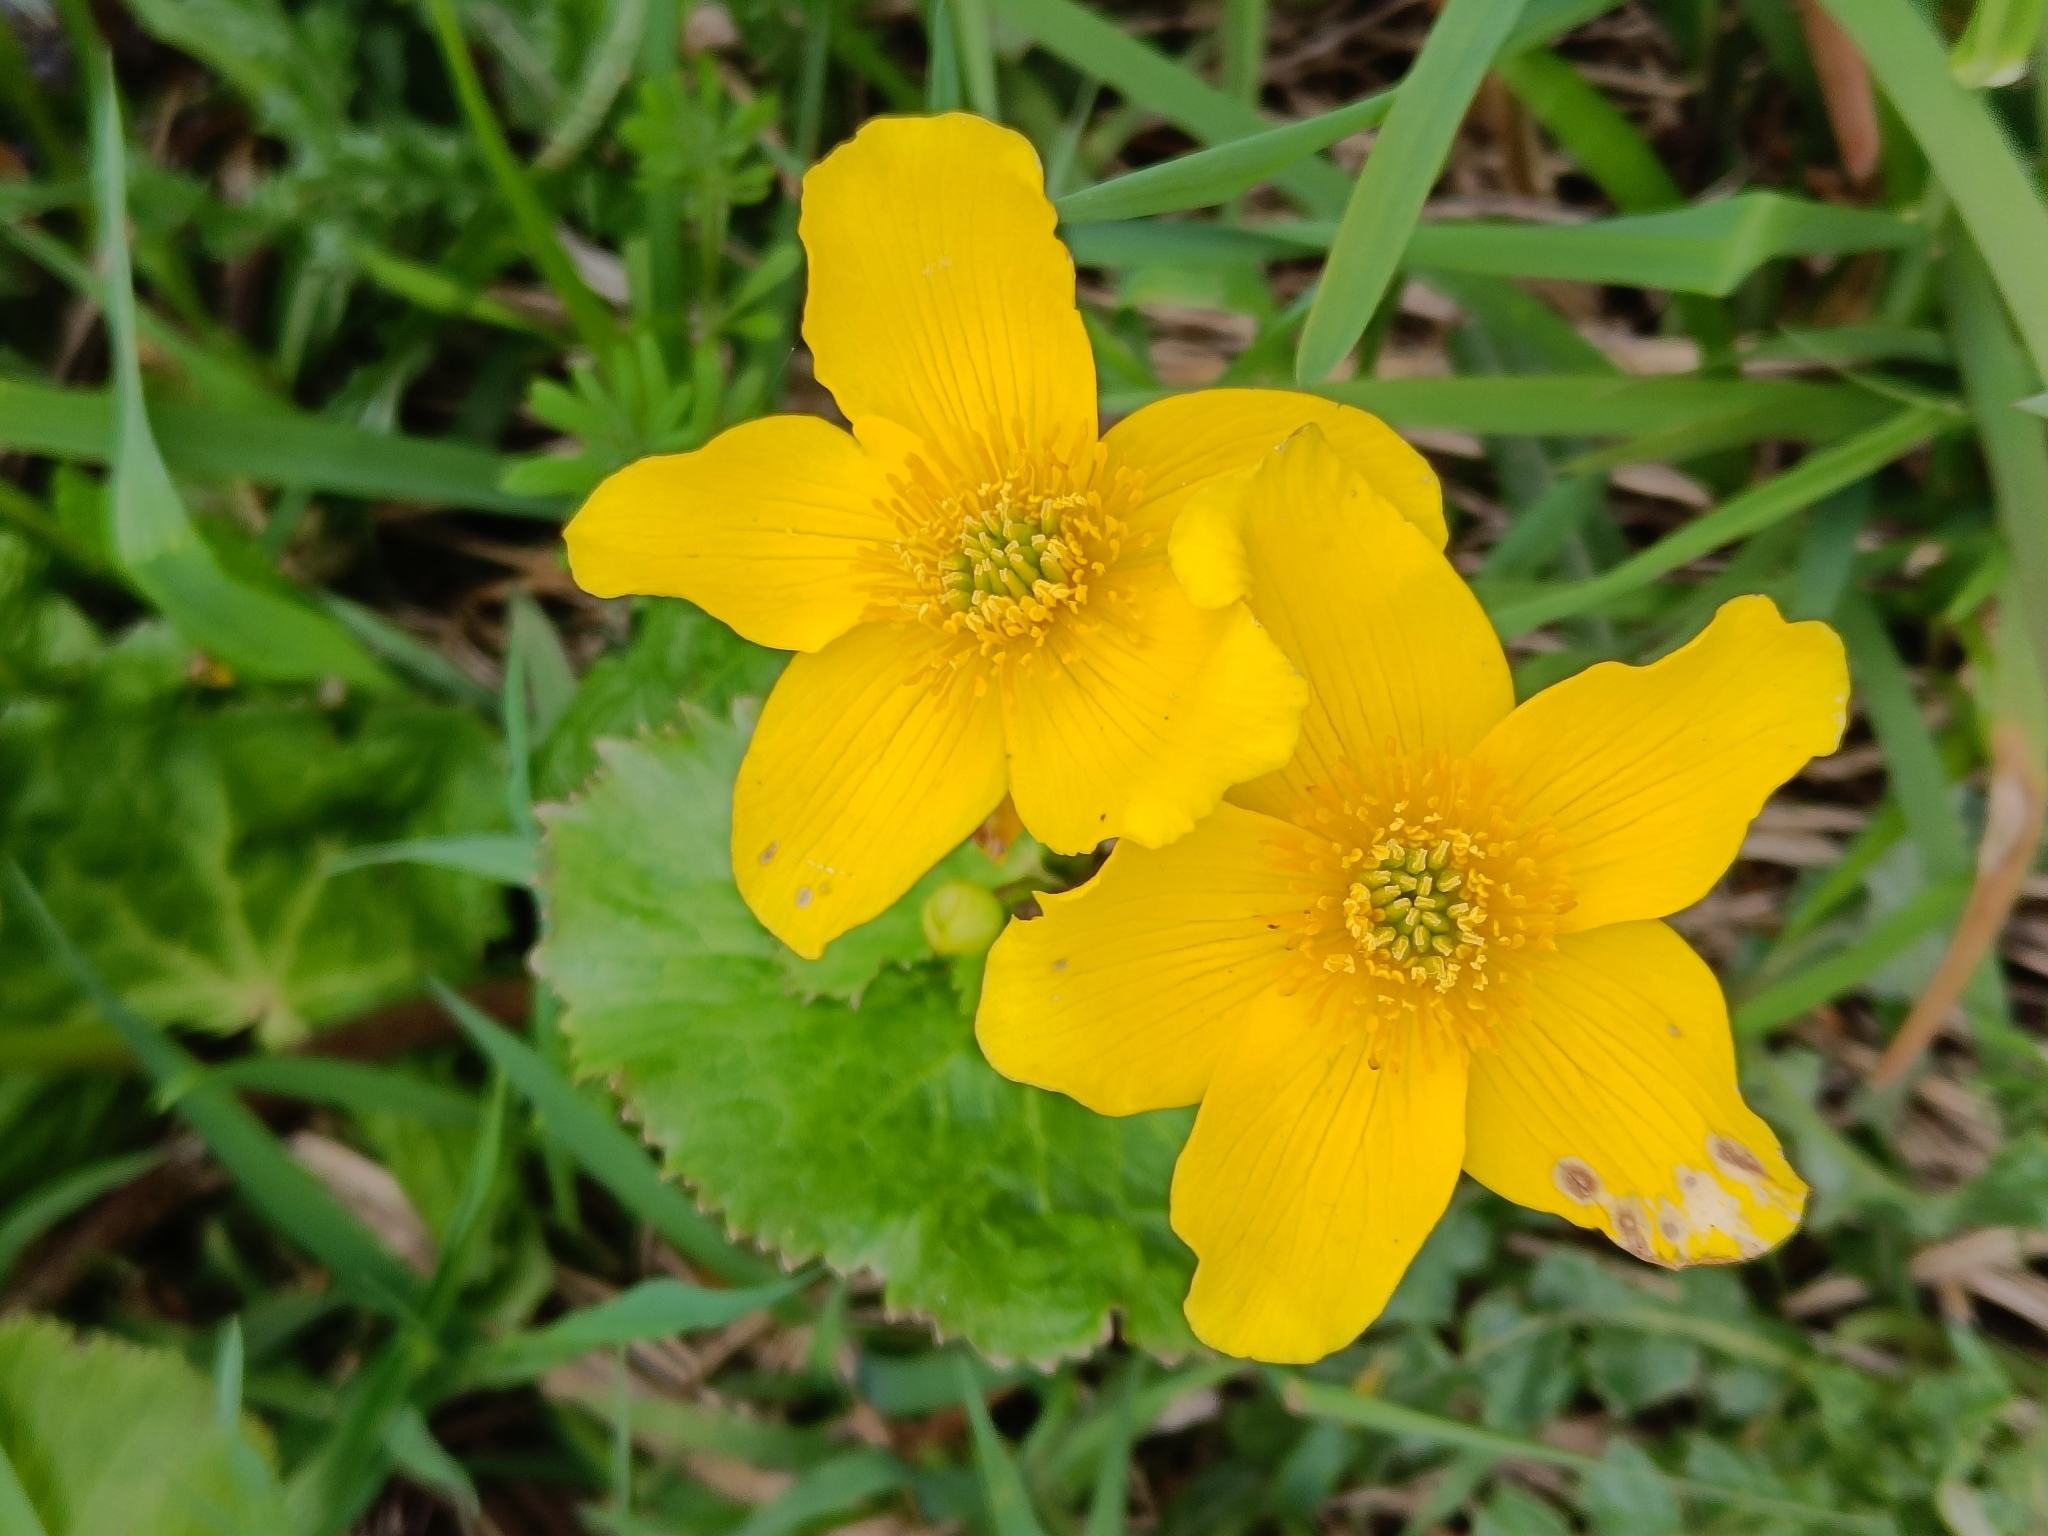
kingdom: Plantae
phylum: Tracheophyta
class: Magnoliopsida
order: Ranunculales
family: Ranunculaceae
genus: Caltha
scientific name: Caltha palustris
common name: Marsh marigold
